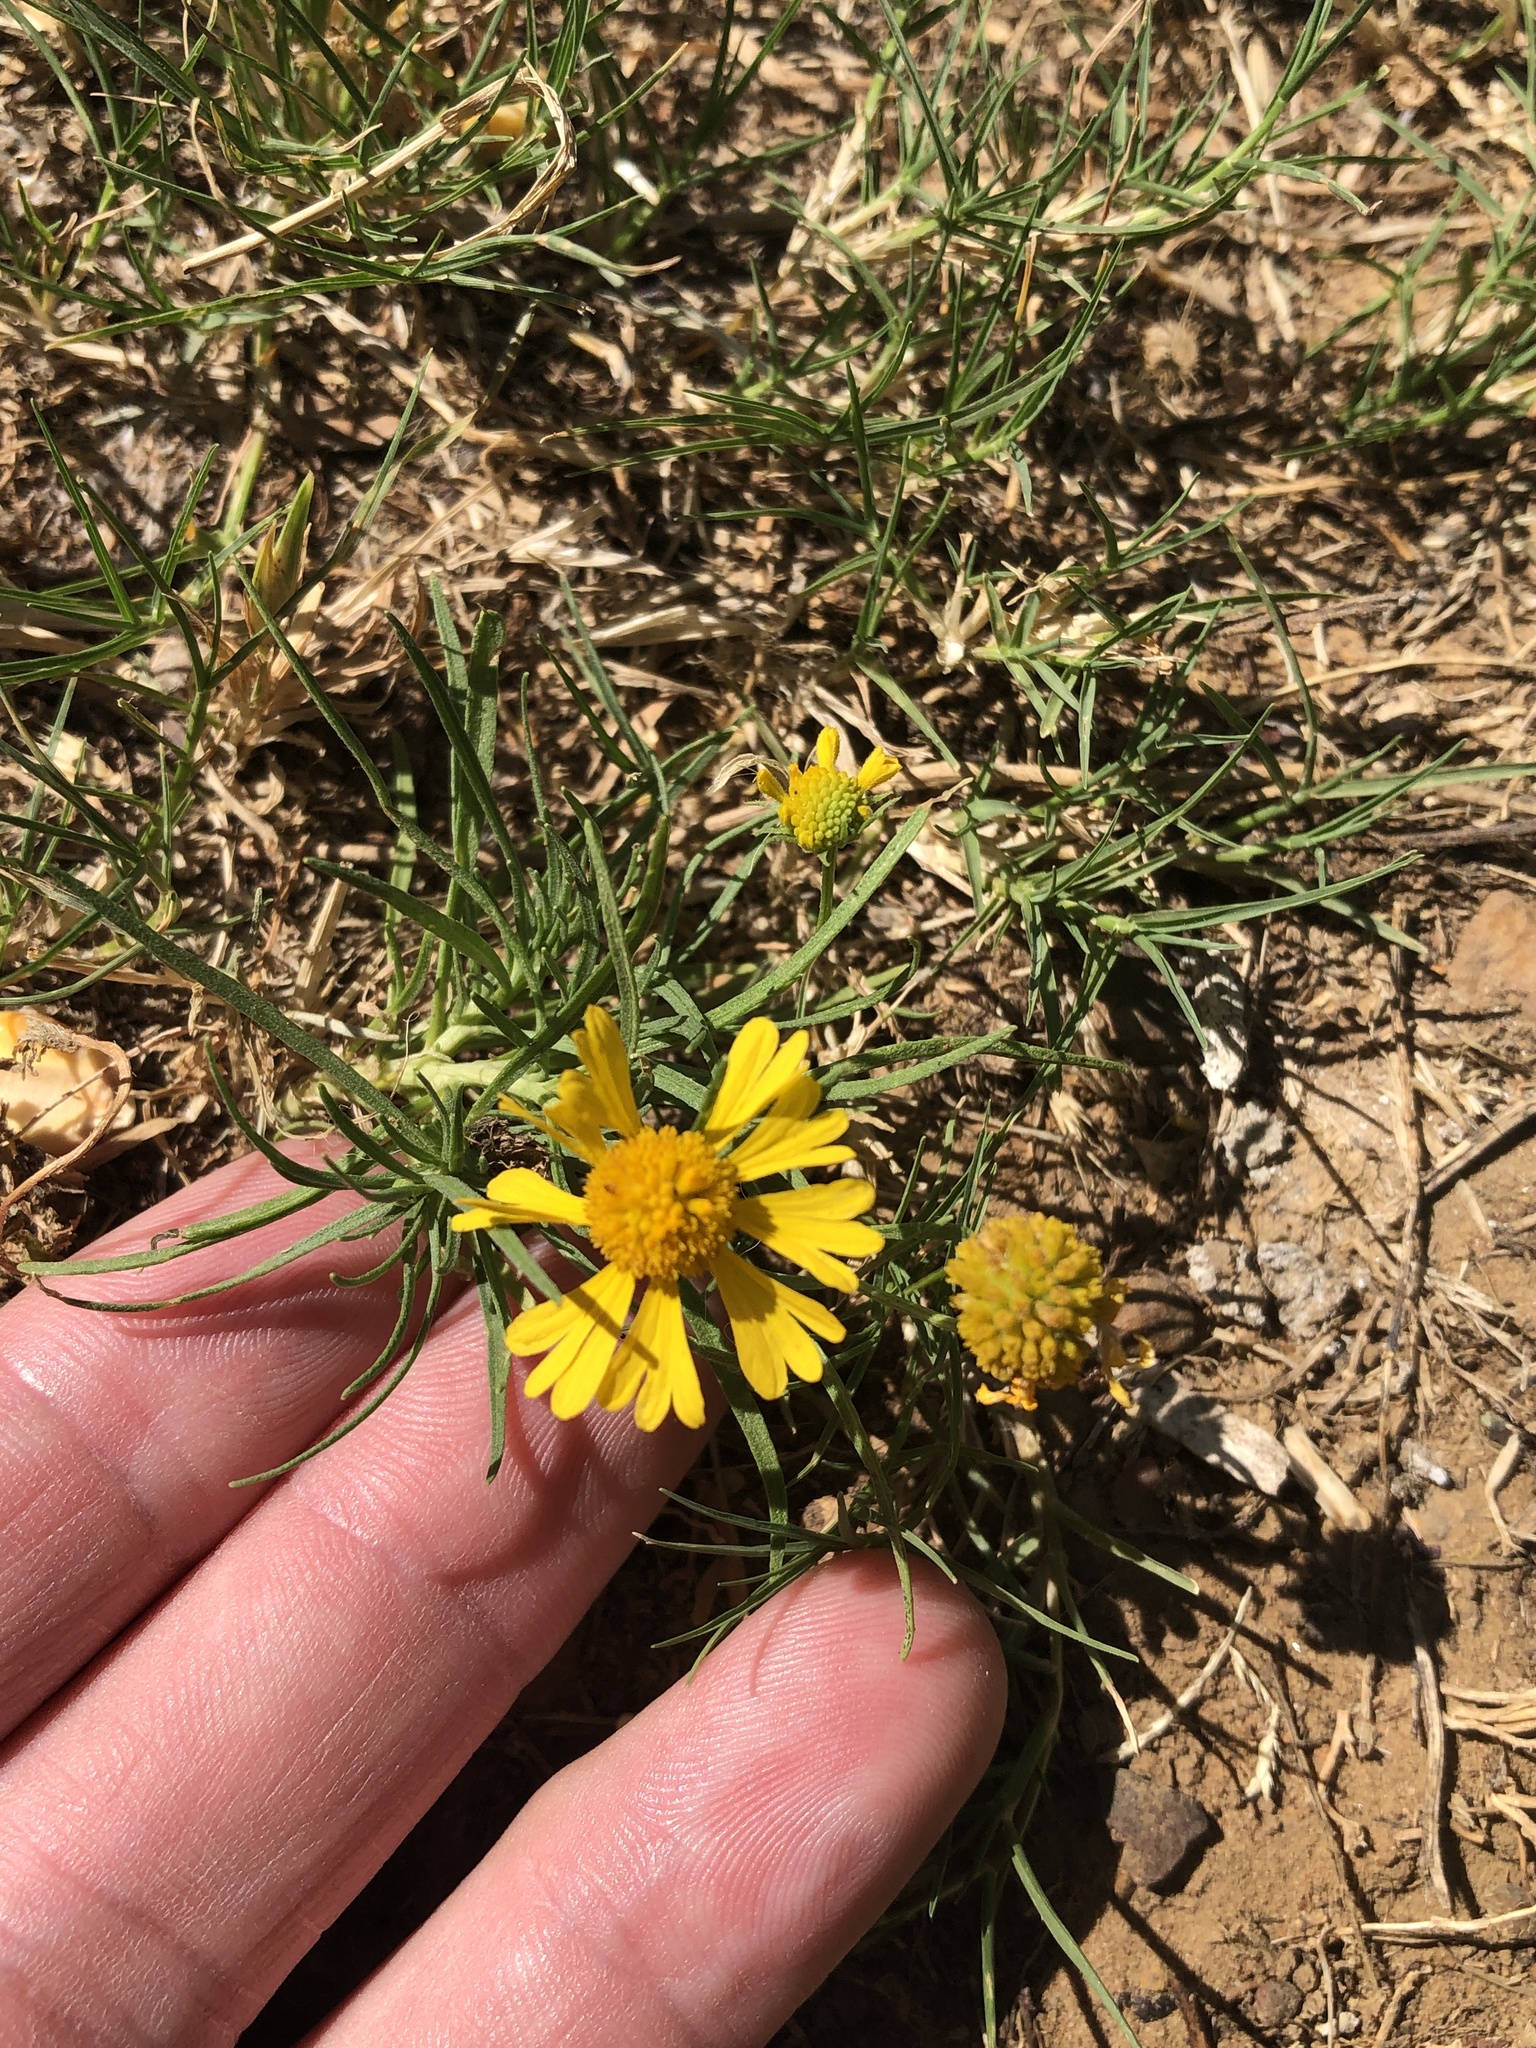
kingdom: Plantae
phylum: Tracheophyta
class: Magnoliopsida
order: Asterales
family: Asteraceae
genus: Helenium
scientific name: Helenium amarum
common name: Bitter sneezeweed
